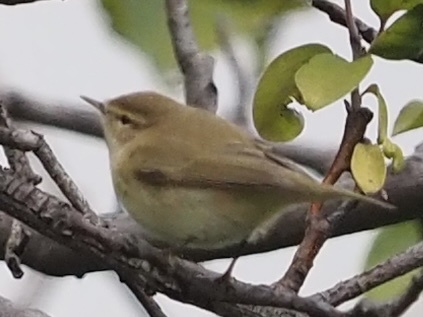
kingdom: Animalia
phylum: Chordata
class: Aves
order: Passeriformes
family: Phylloscopidae
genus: Phylloscopus
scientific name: Phylloscopus collybita
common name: Common chiffchaff
